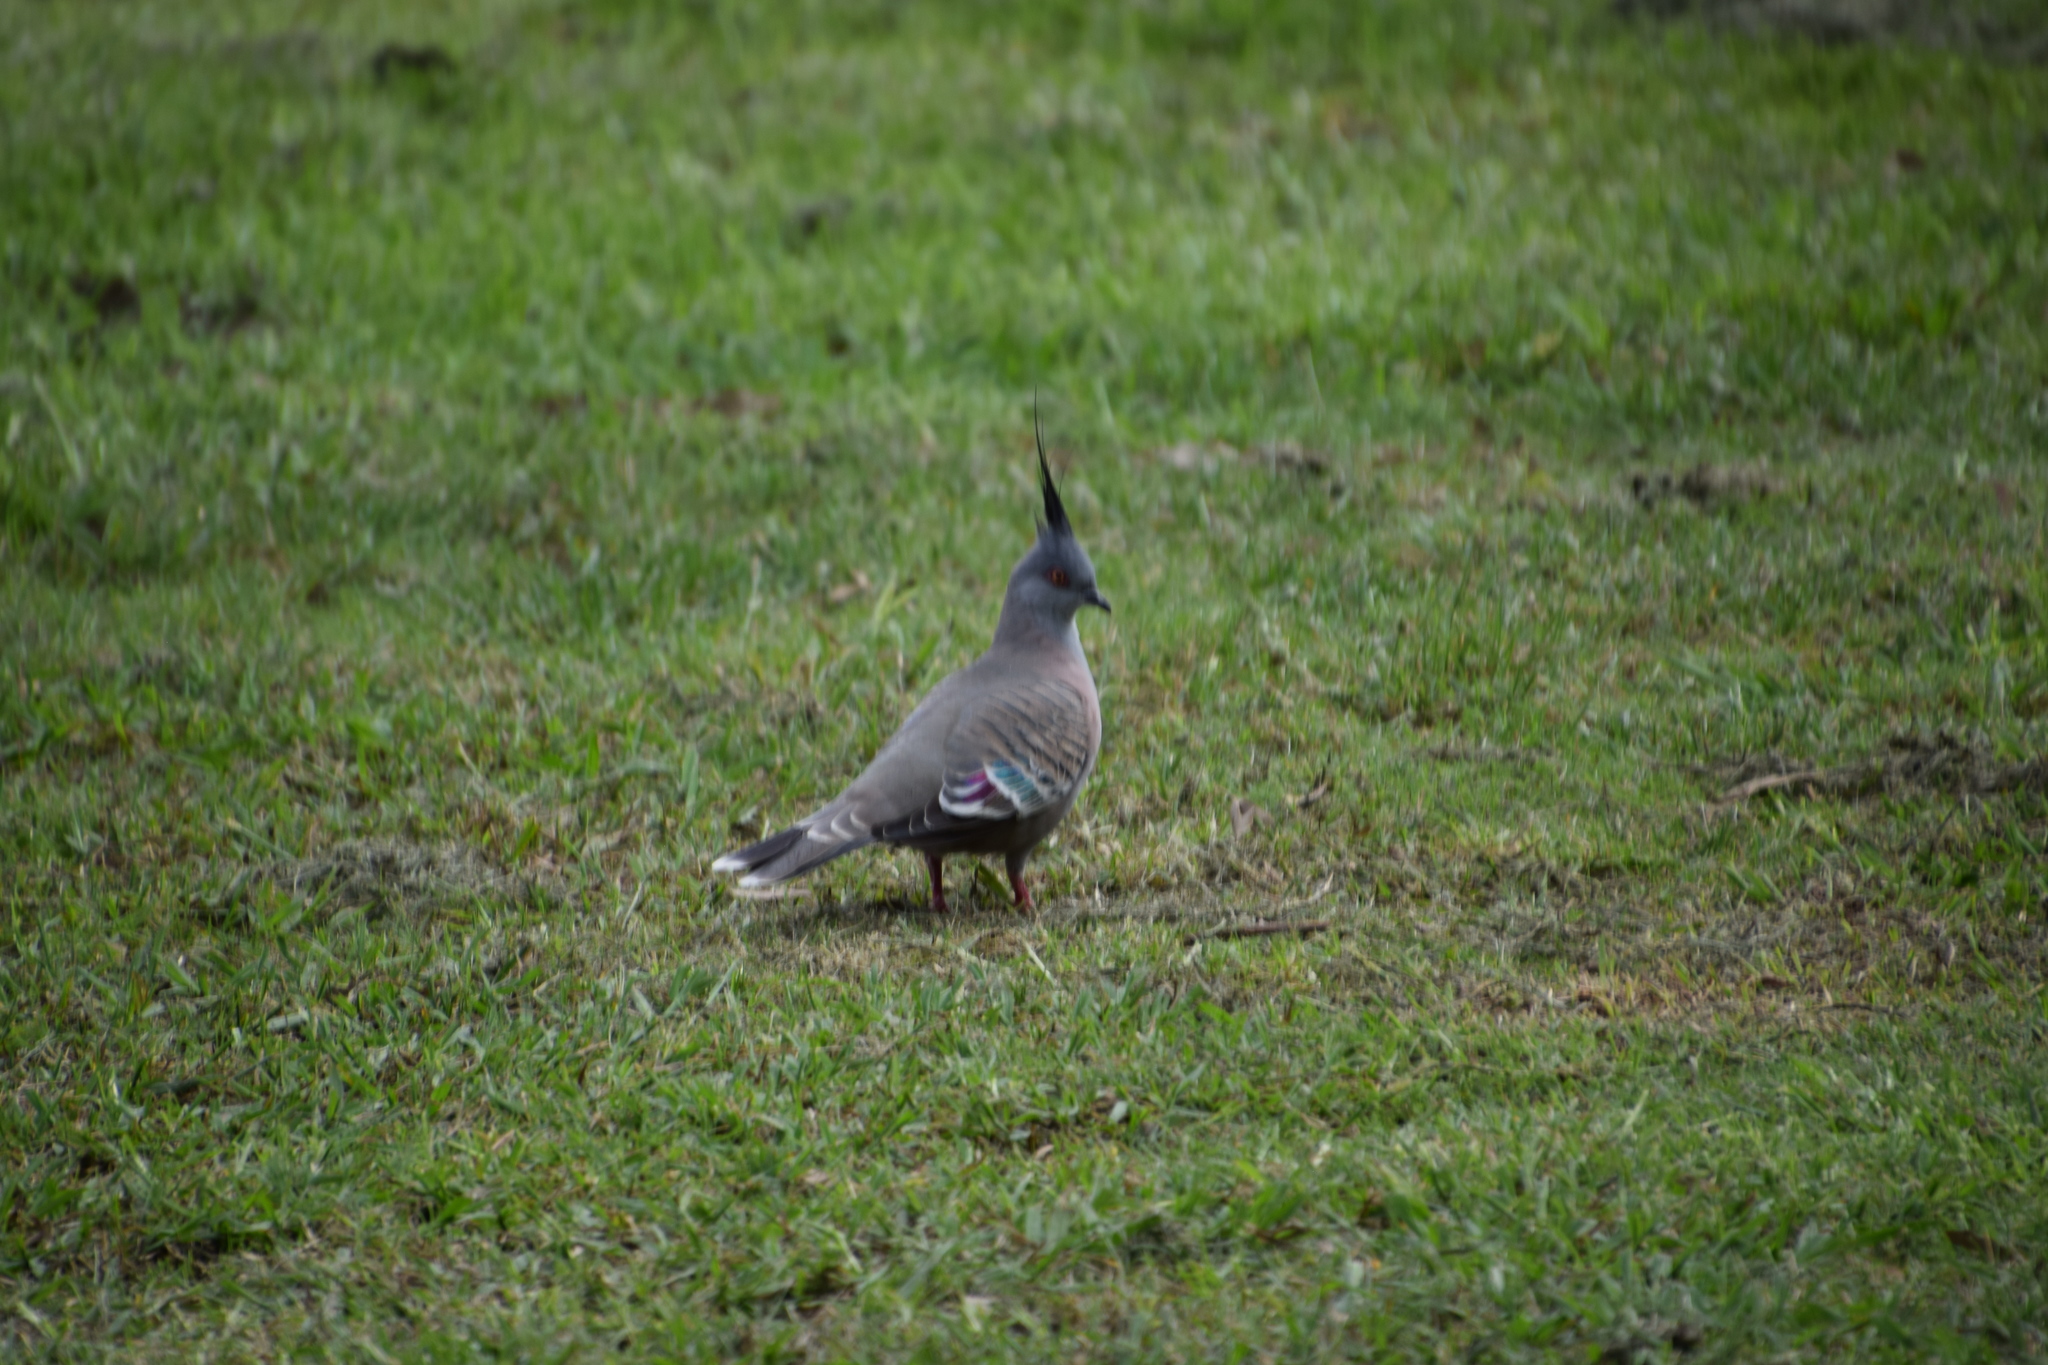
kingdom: Animalia
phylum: Chordata
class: Aves
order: Columbiformes
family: Columbidae
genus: Ocyphaps
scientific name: Ocyphaps lophotes
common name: Crested pigeon
